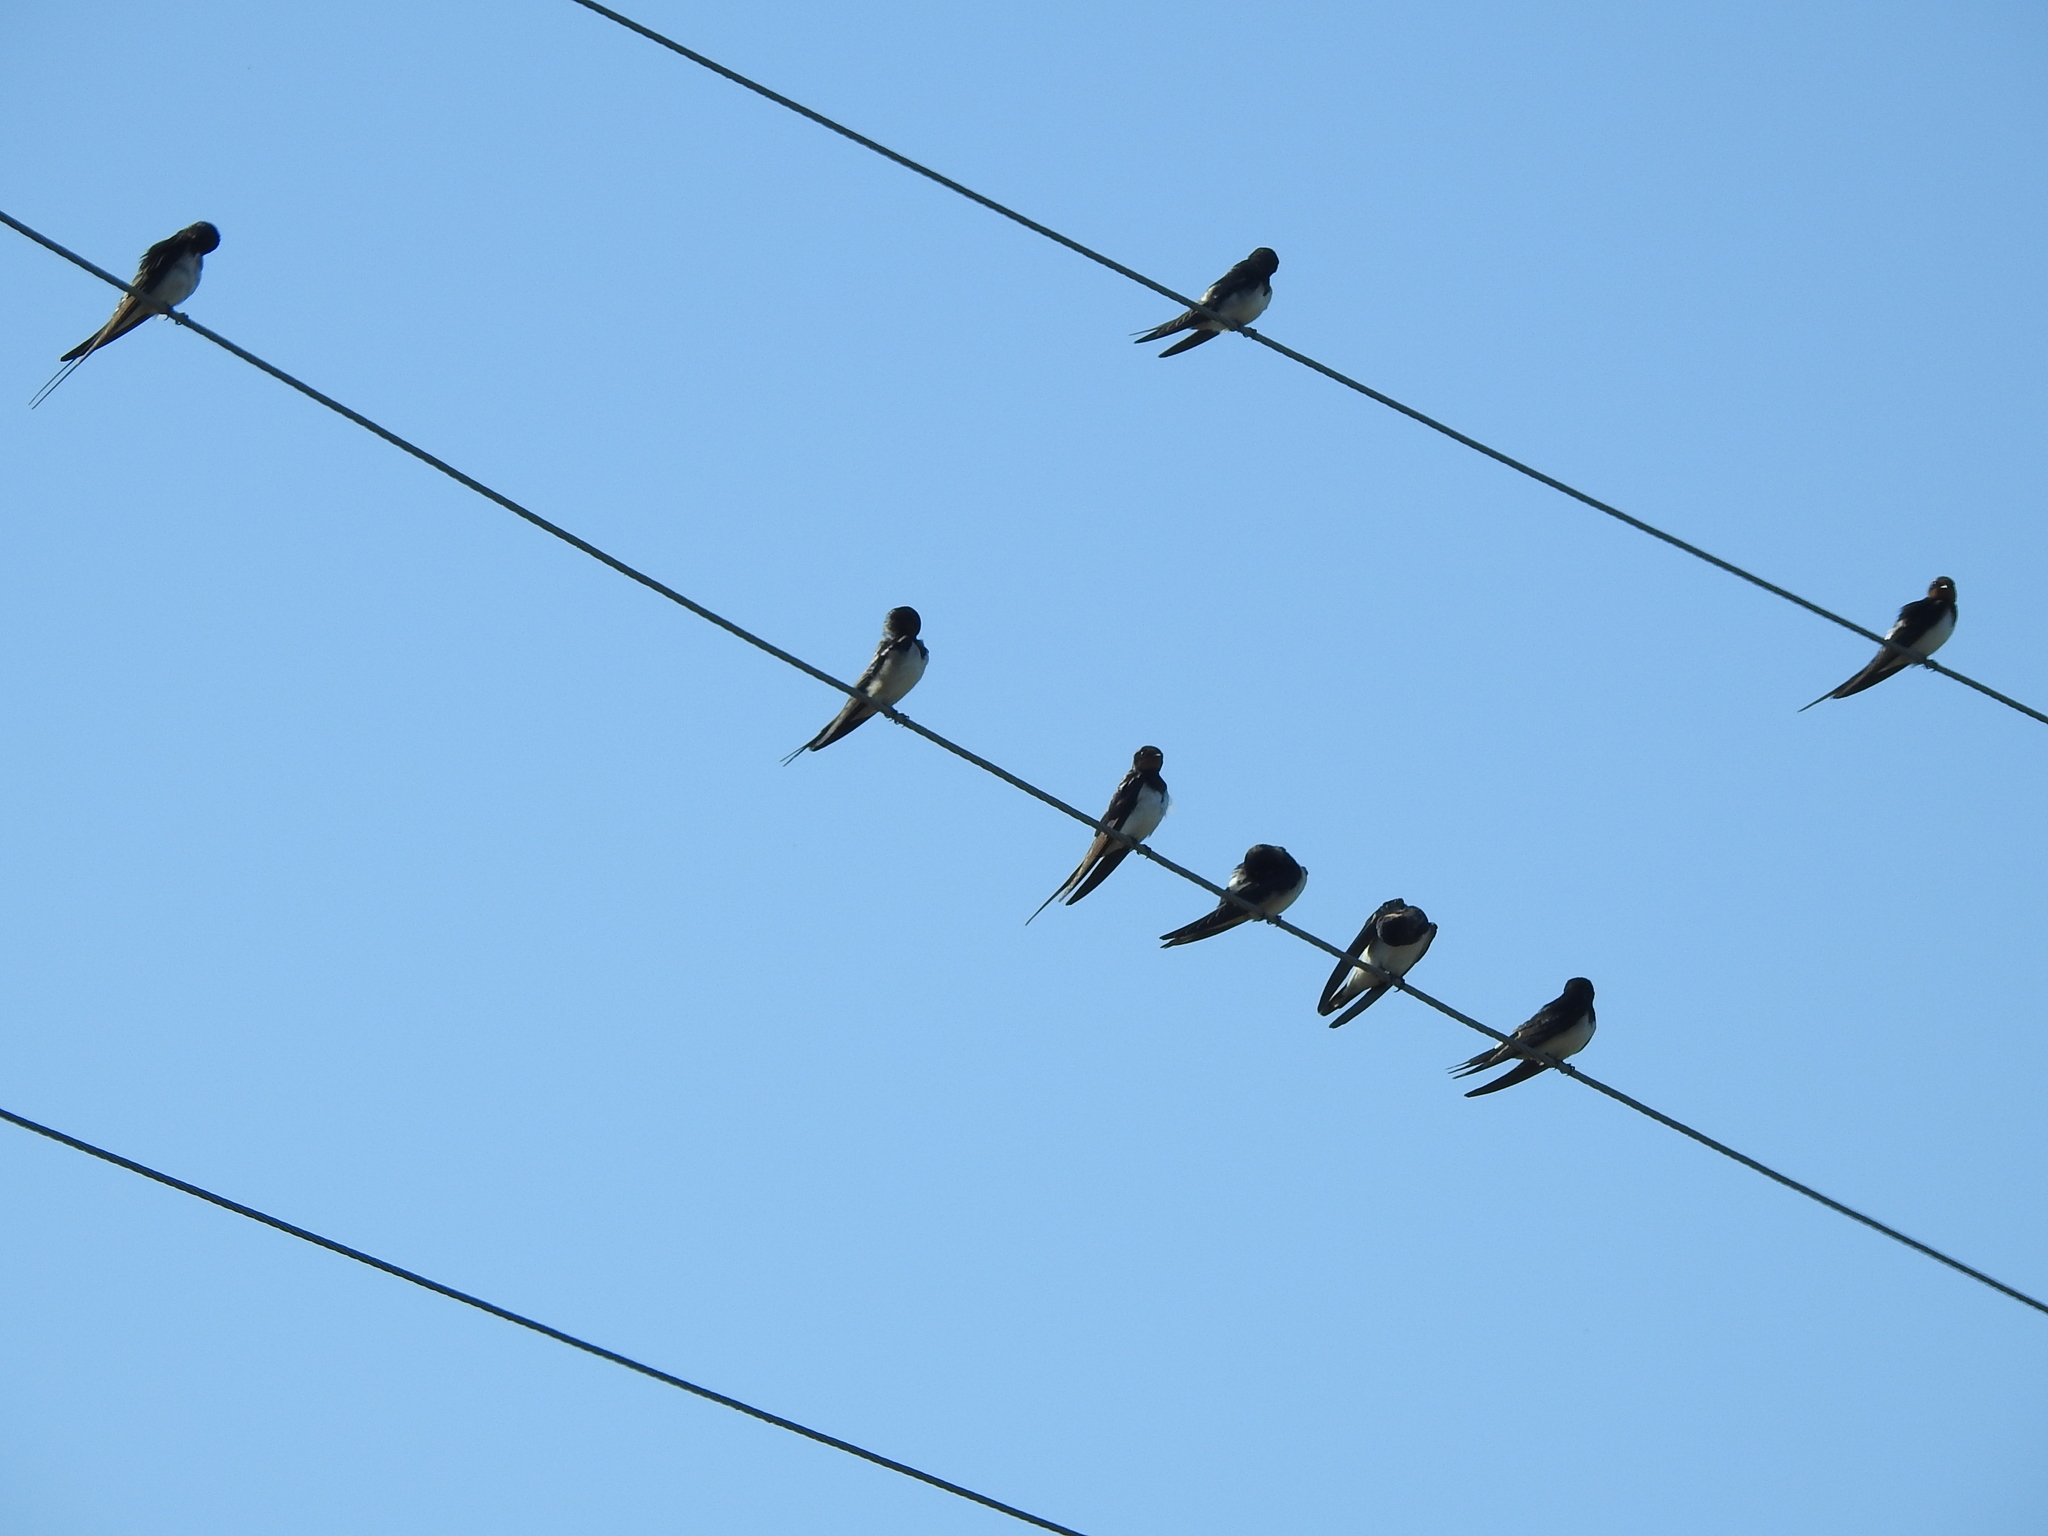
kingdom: Animalia
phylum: Chordata
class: Aves
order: Passeriformes
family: Hirundinidae
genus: Hirundo
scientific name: Hirundo rustica
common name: Barn swallow
